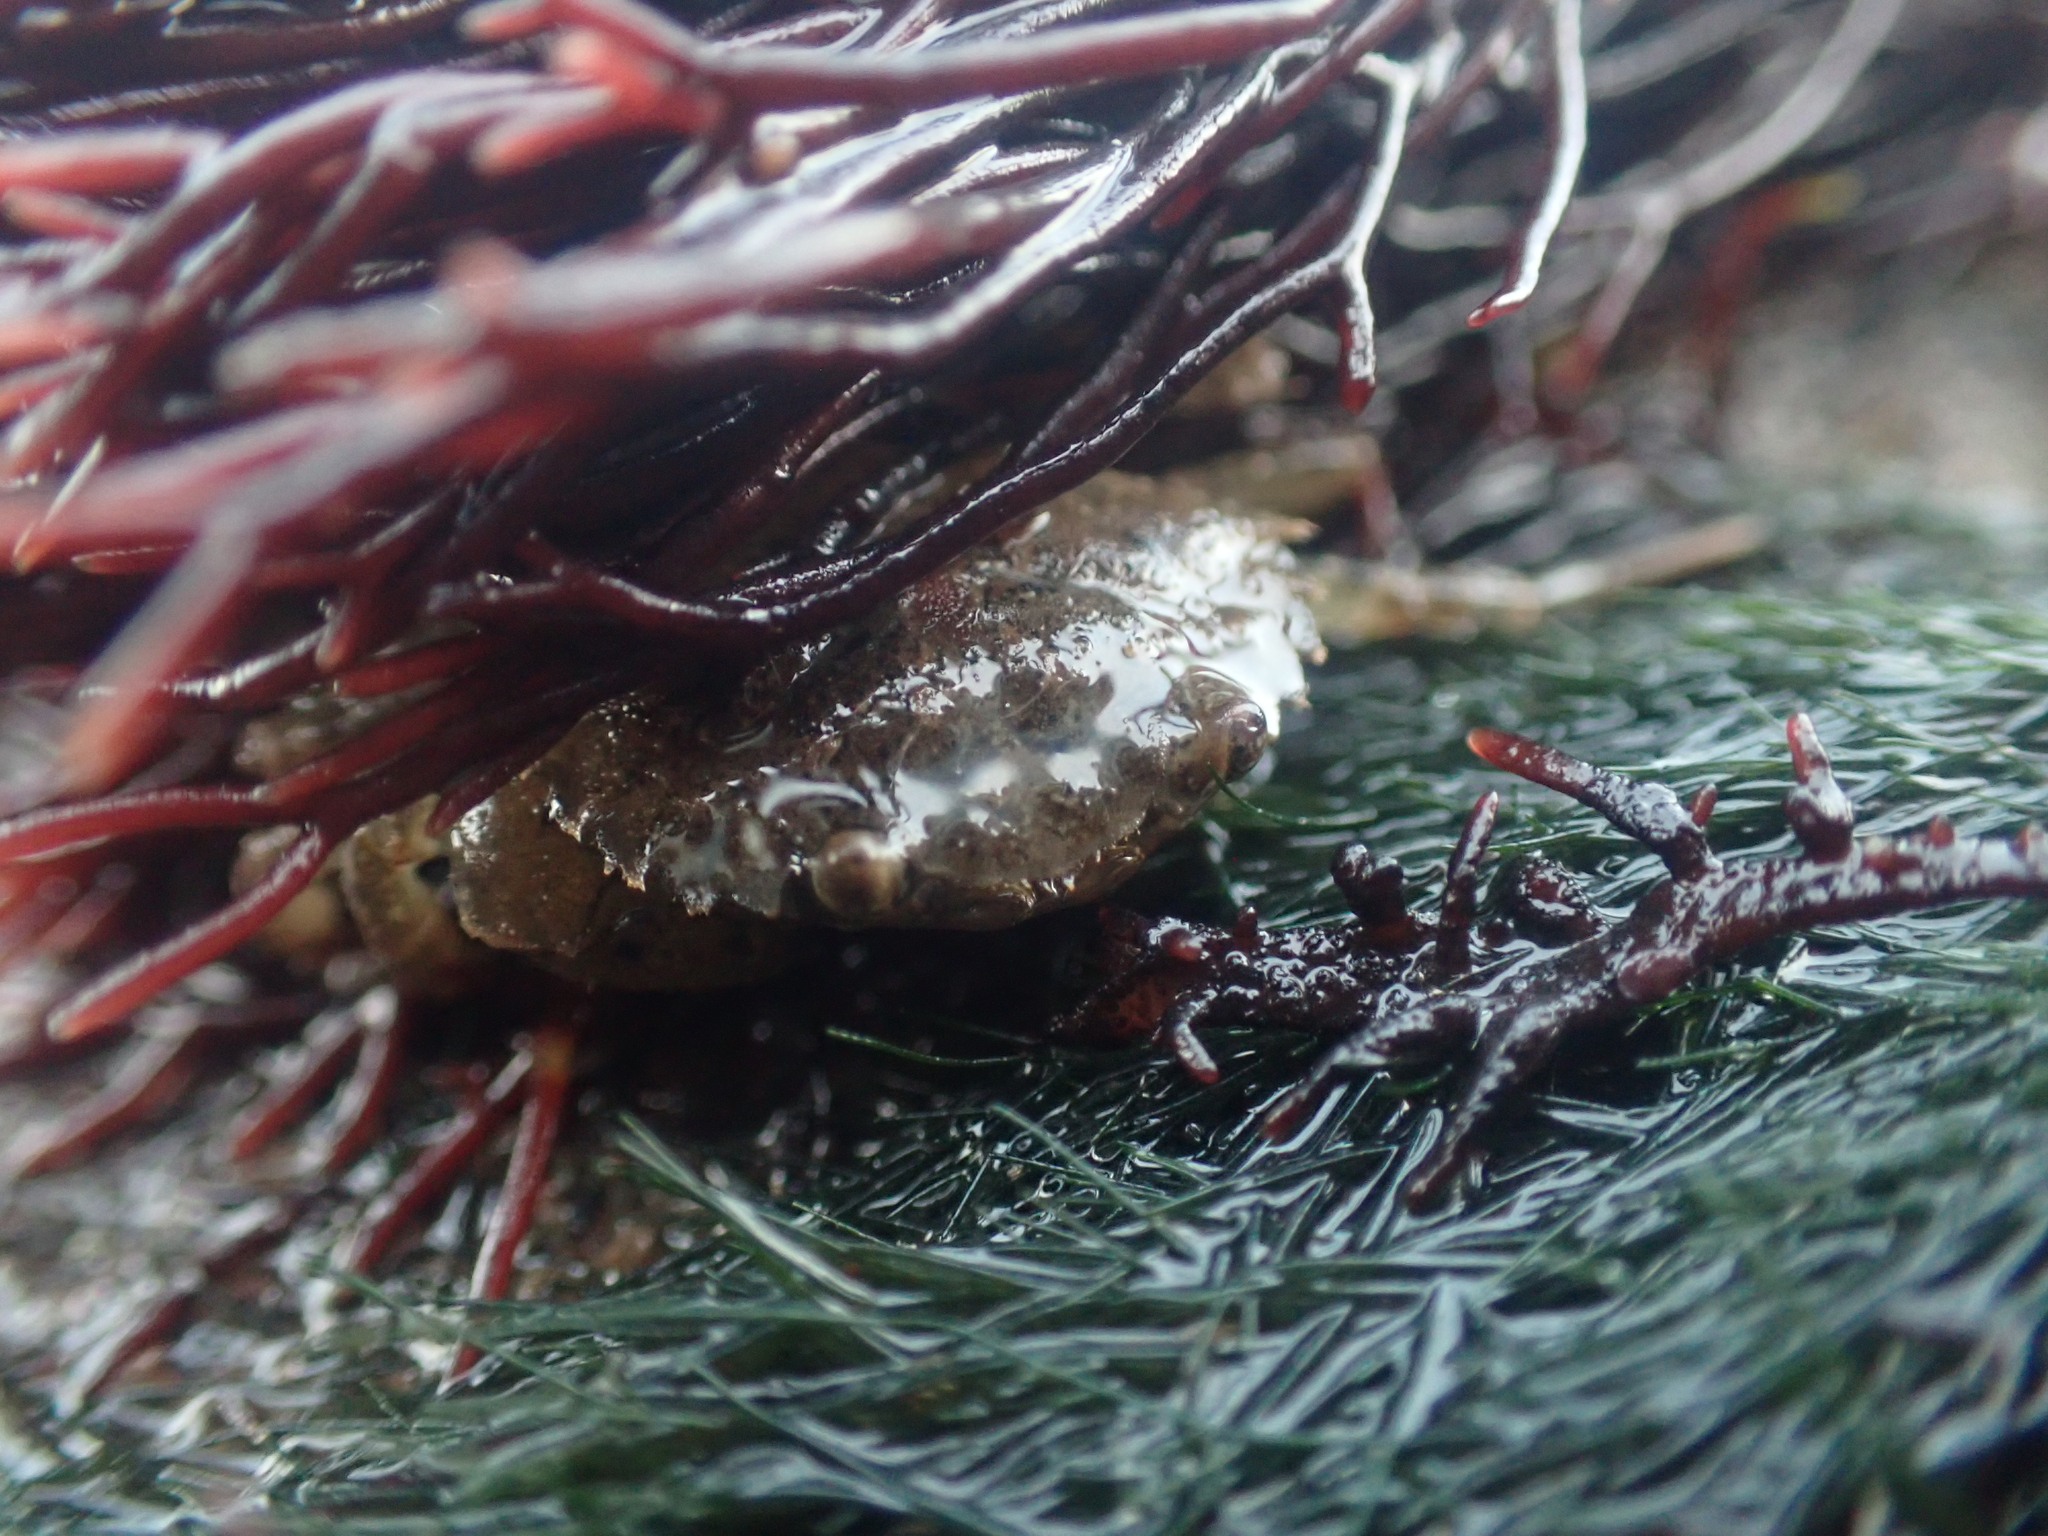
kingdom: Animalia
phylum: Arthropoda
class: Malacostraca
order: Decapoda
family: Carcinidae
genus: Carcinus
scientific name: Carcinus maenas
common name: European green crab
